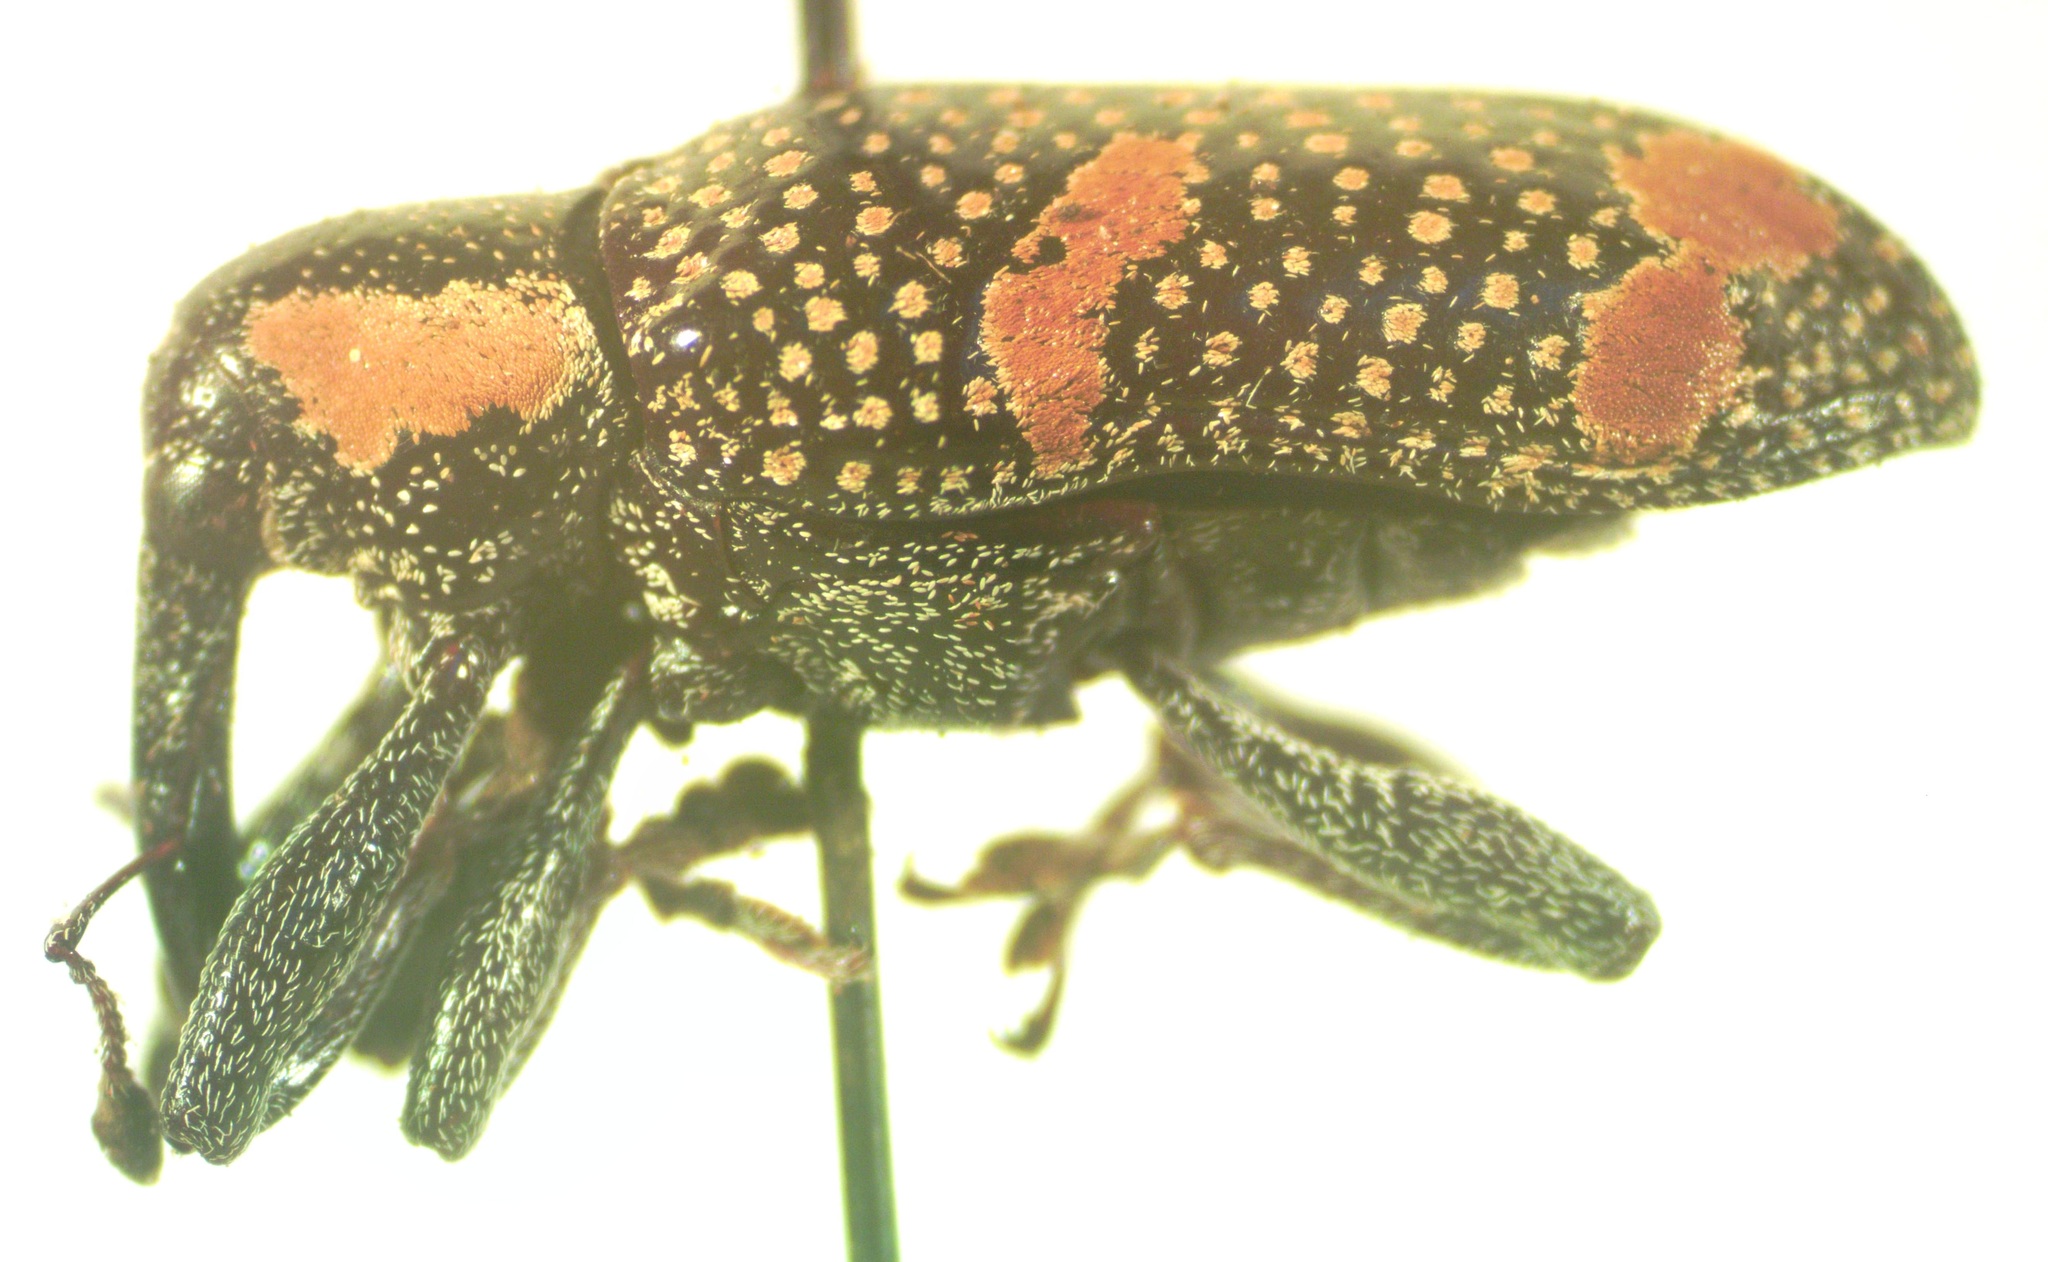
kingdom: Animalia
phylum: Arthropoda
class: Insecta
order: Coleoptera
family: Curculionidae
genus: Heilipus
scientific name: Heilipus trifasciatus
